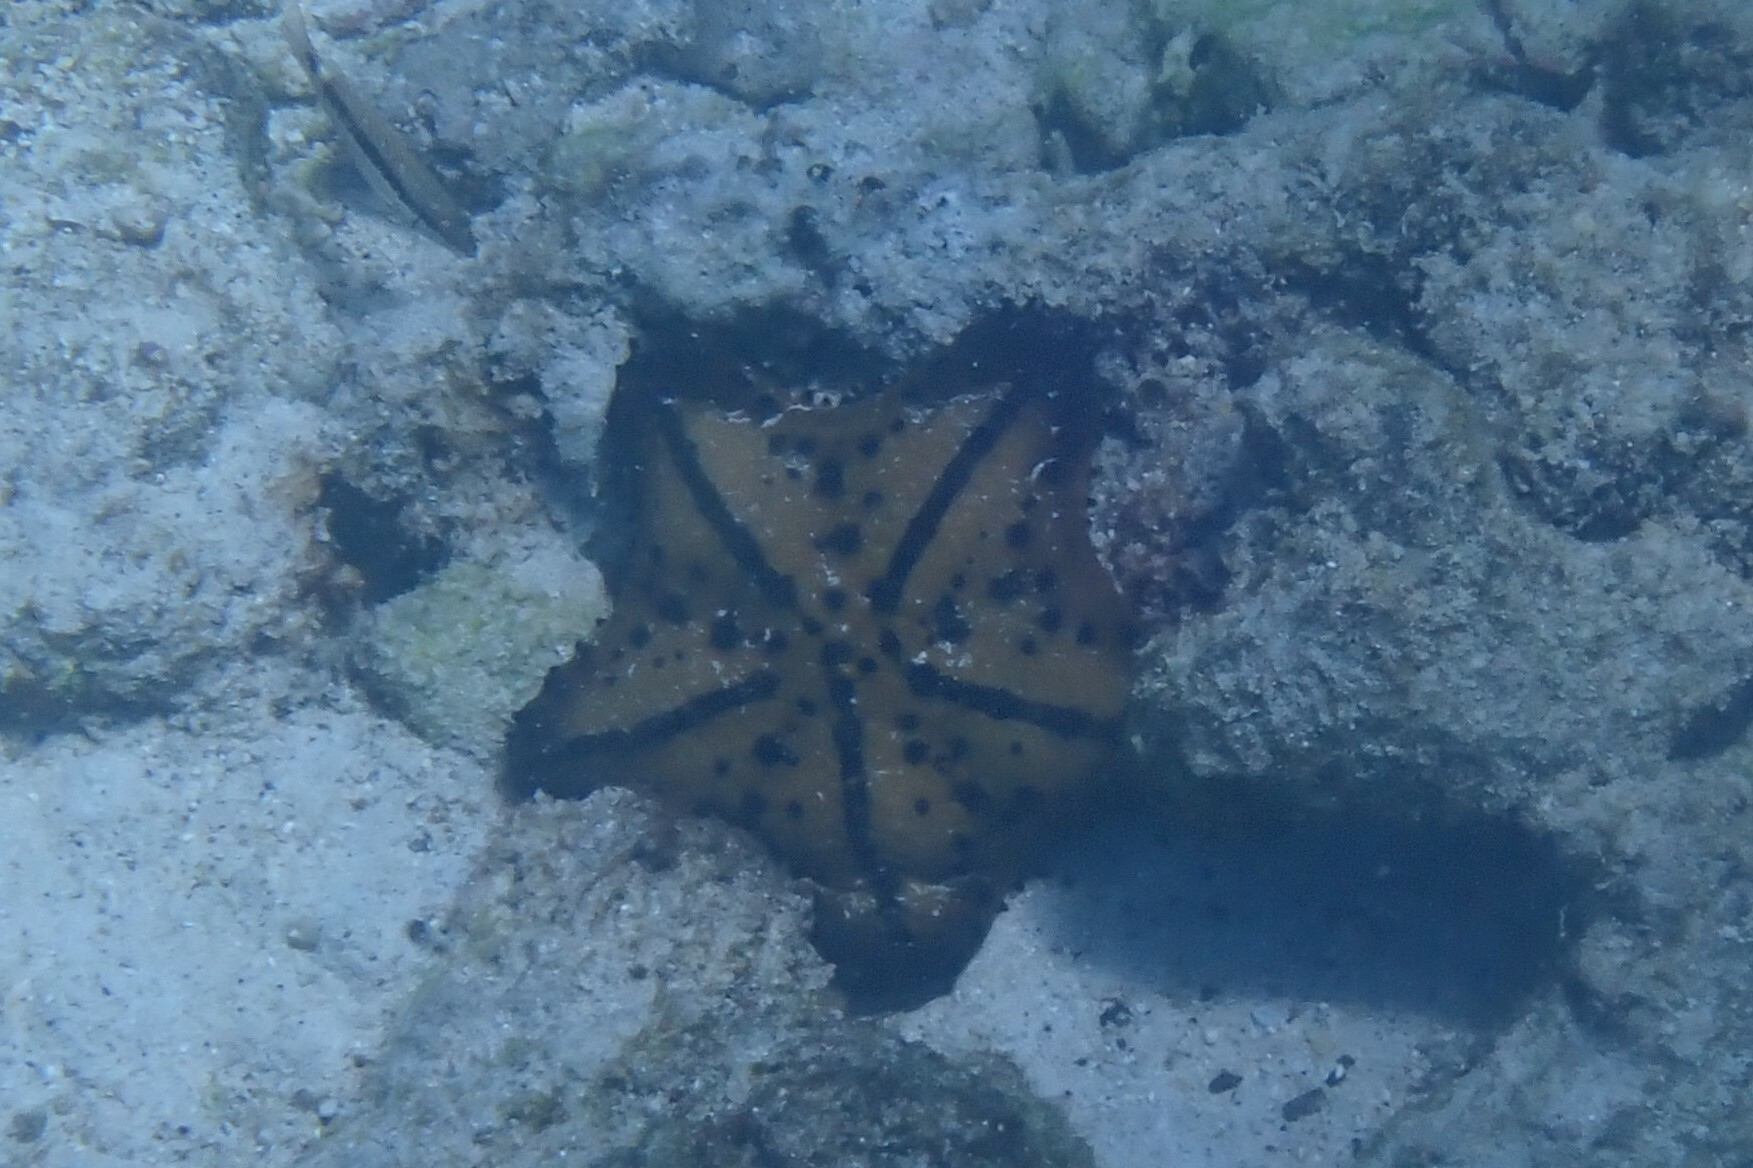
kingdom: Animalia
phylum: Echinodermata
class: Asteroidea
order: Valvatida
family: Oreasteridae
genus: Nidorellia
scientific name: Nidorellia armata
